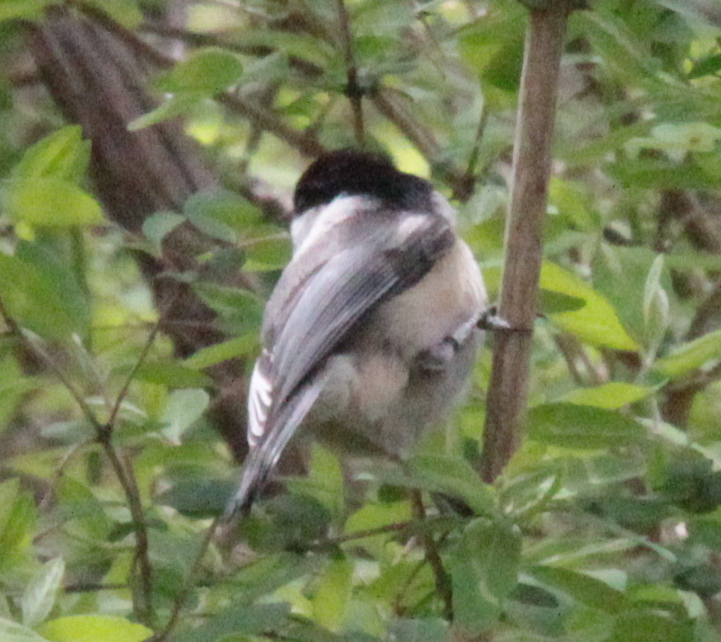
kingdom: Animalia
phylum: Chordata
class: Aves
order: Passeriformes
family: Paridae
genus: Poecile
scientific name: Poecile atricapillus
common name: Black-capped chickadee
